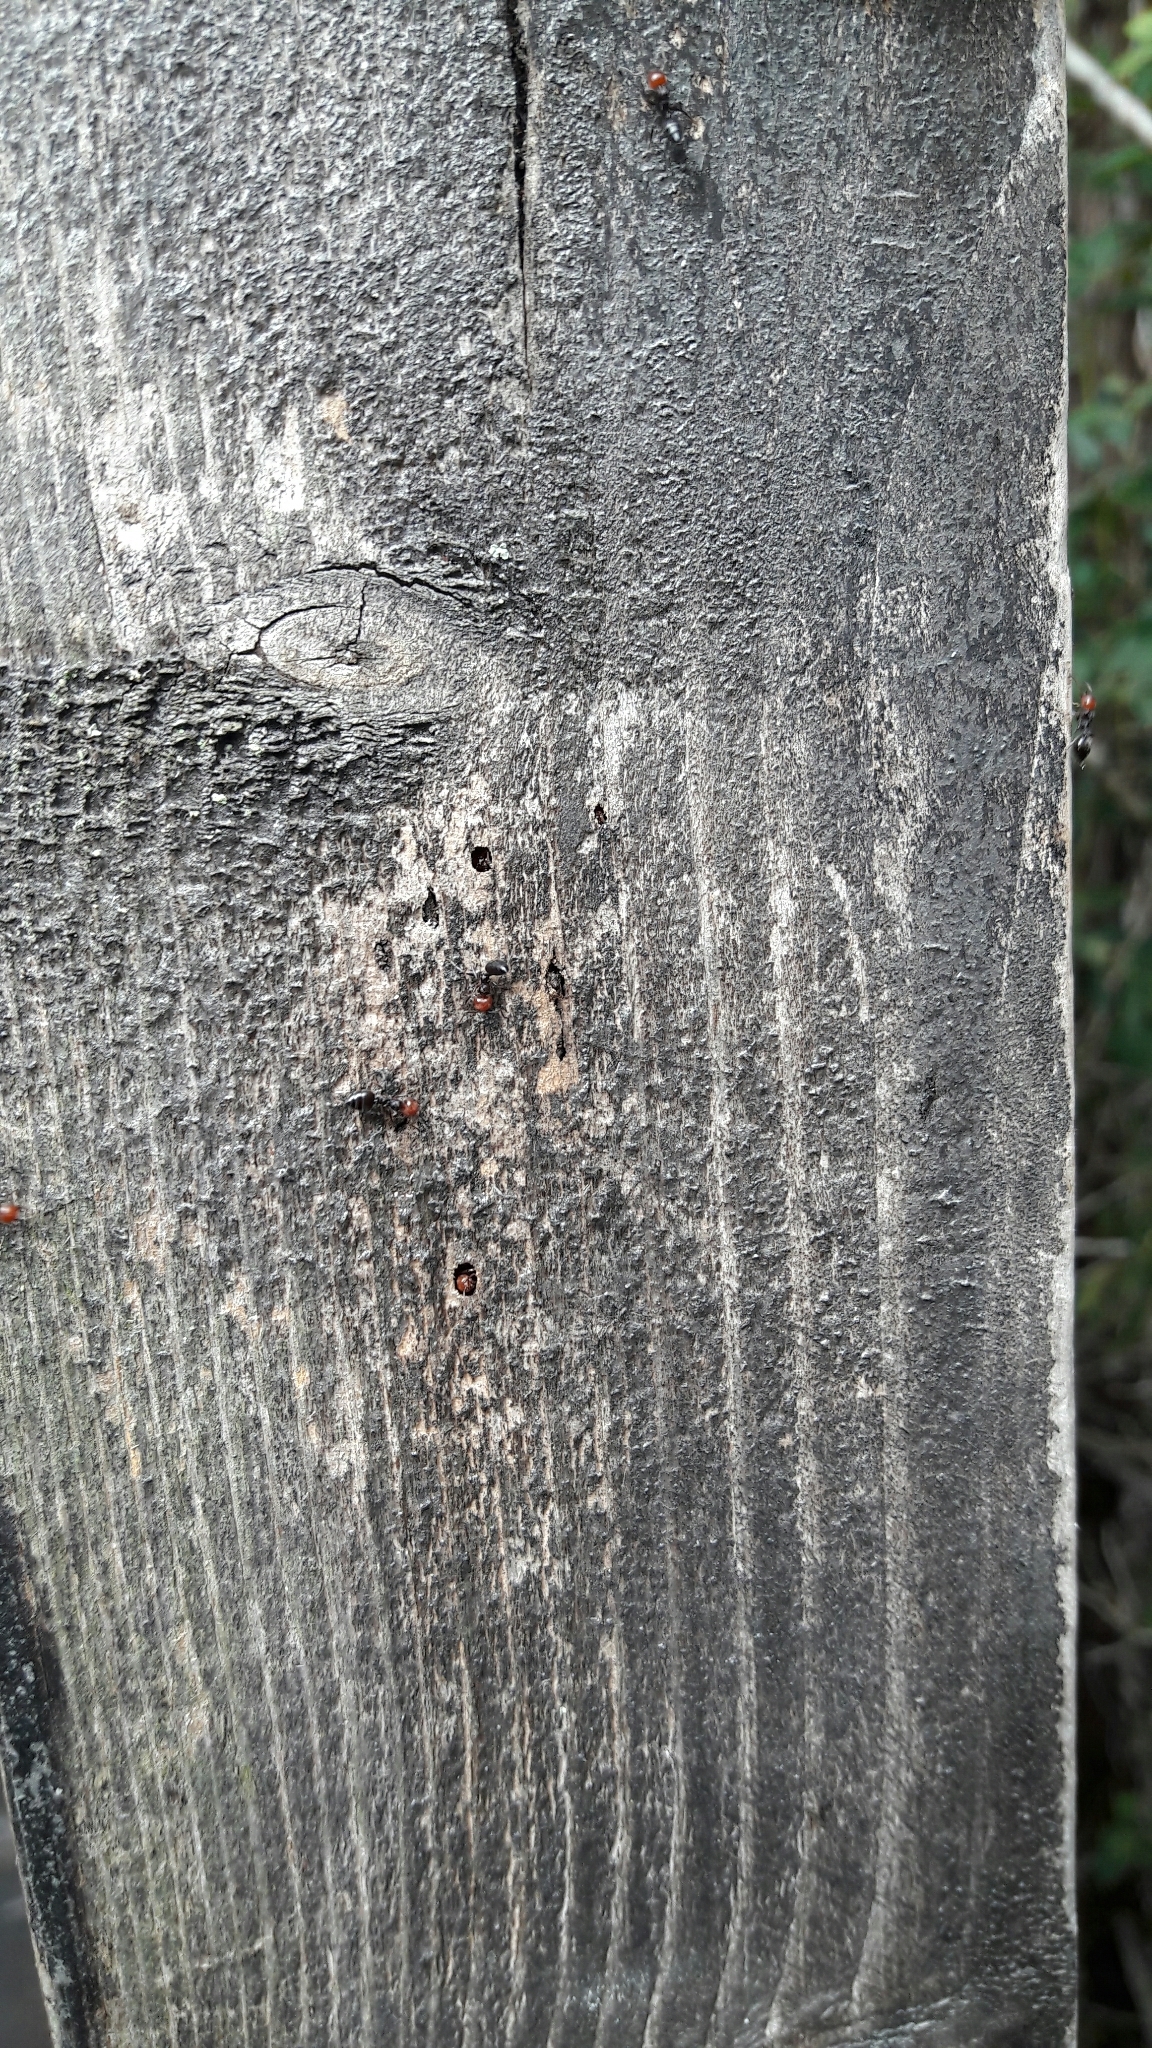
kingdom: Animalia
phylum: Arthropoda
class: Insecta
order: Hymenoptera
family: Formicidae
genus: Crematogaster
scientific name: Crematogaster scutellaris
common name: Fourmi du liège
